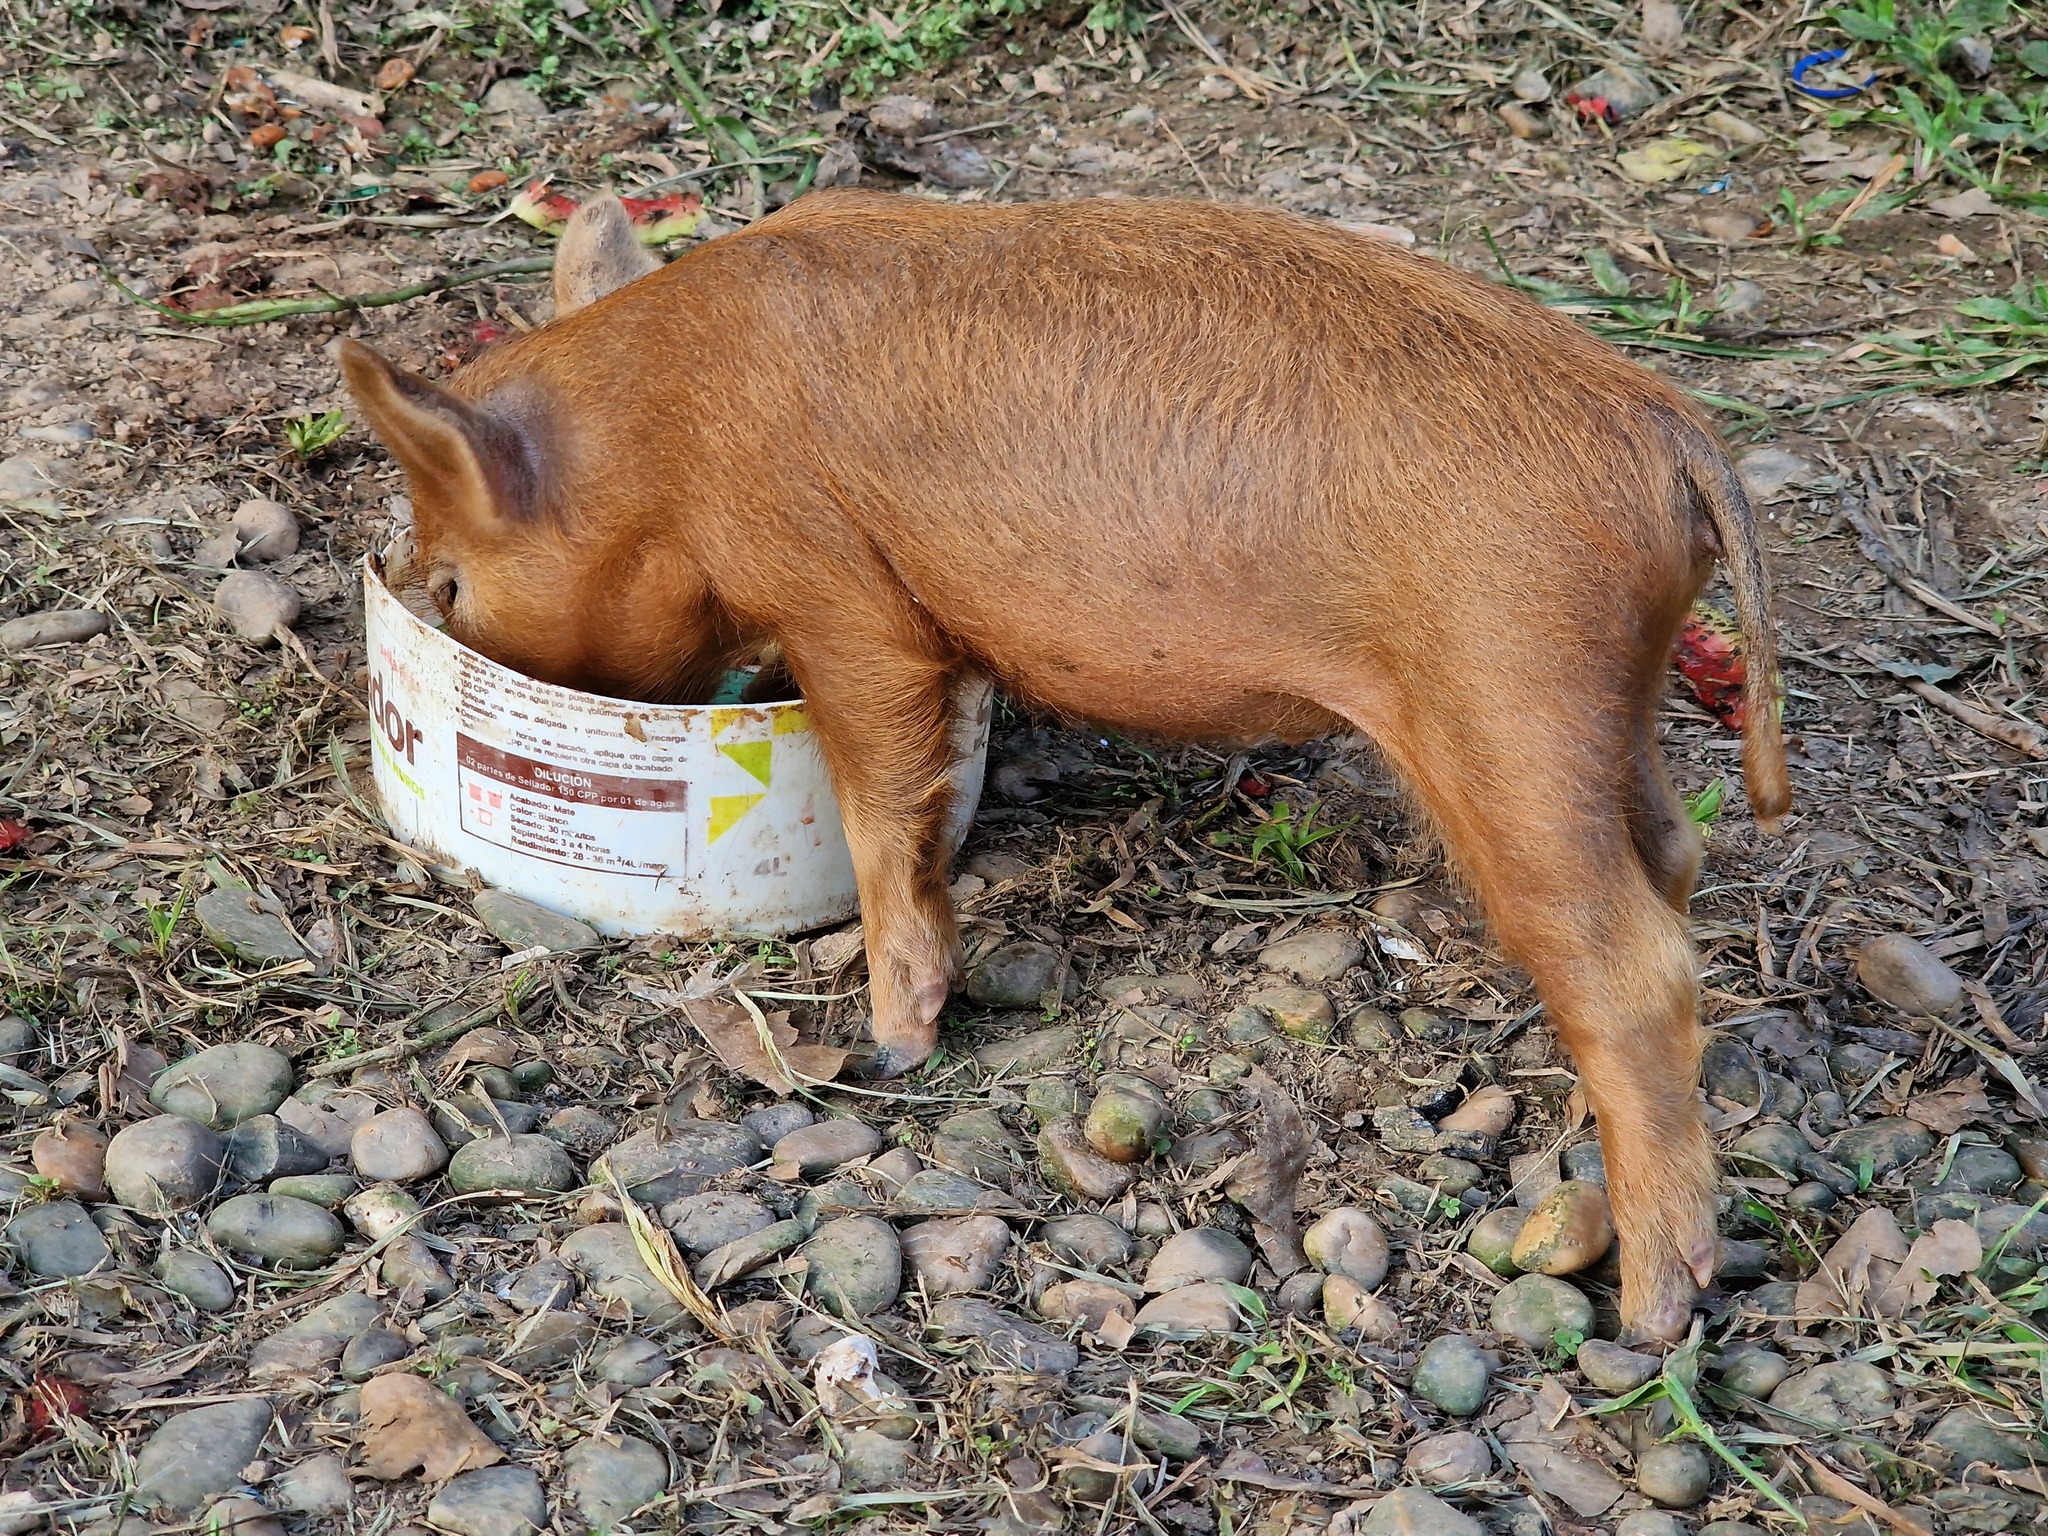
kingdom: Animalia
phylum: Chordata
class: Mammalia
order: Artiodactyla
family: Suidae
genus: Sus
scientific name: Sus scrofa
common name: Wild boar
